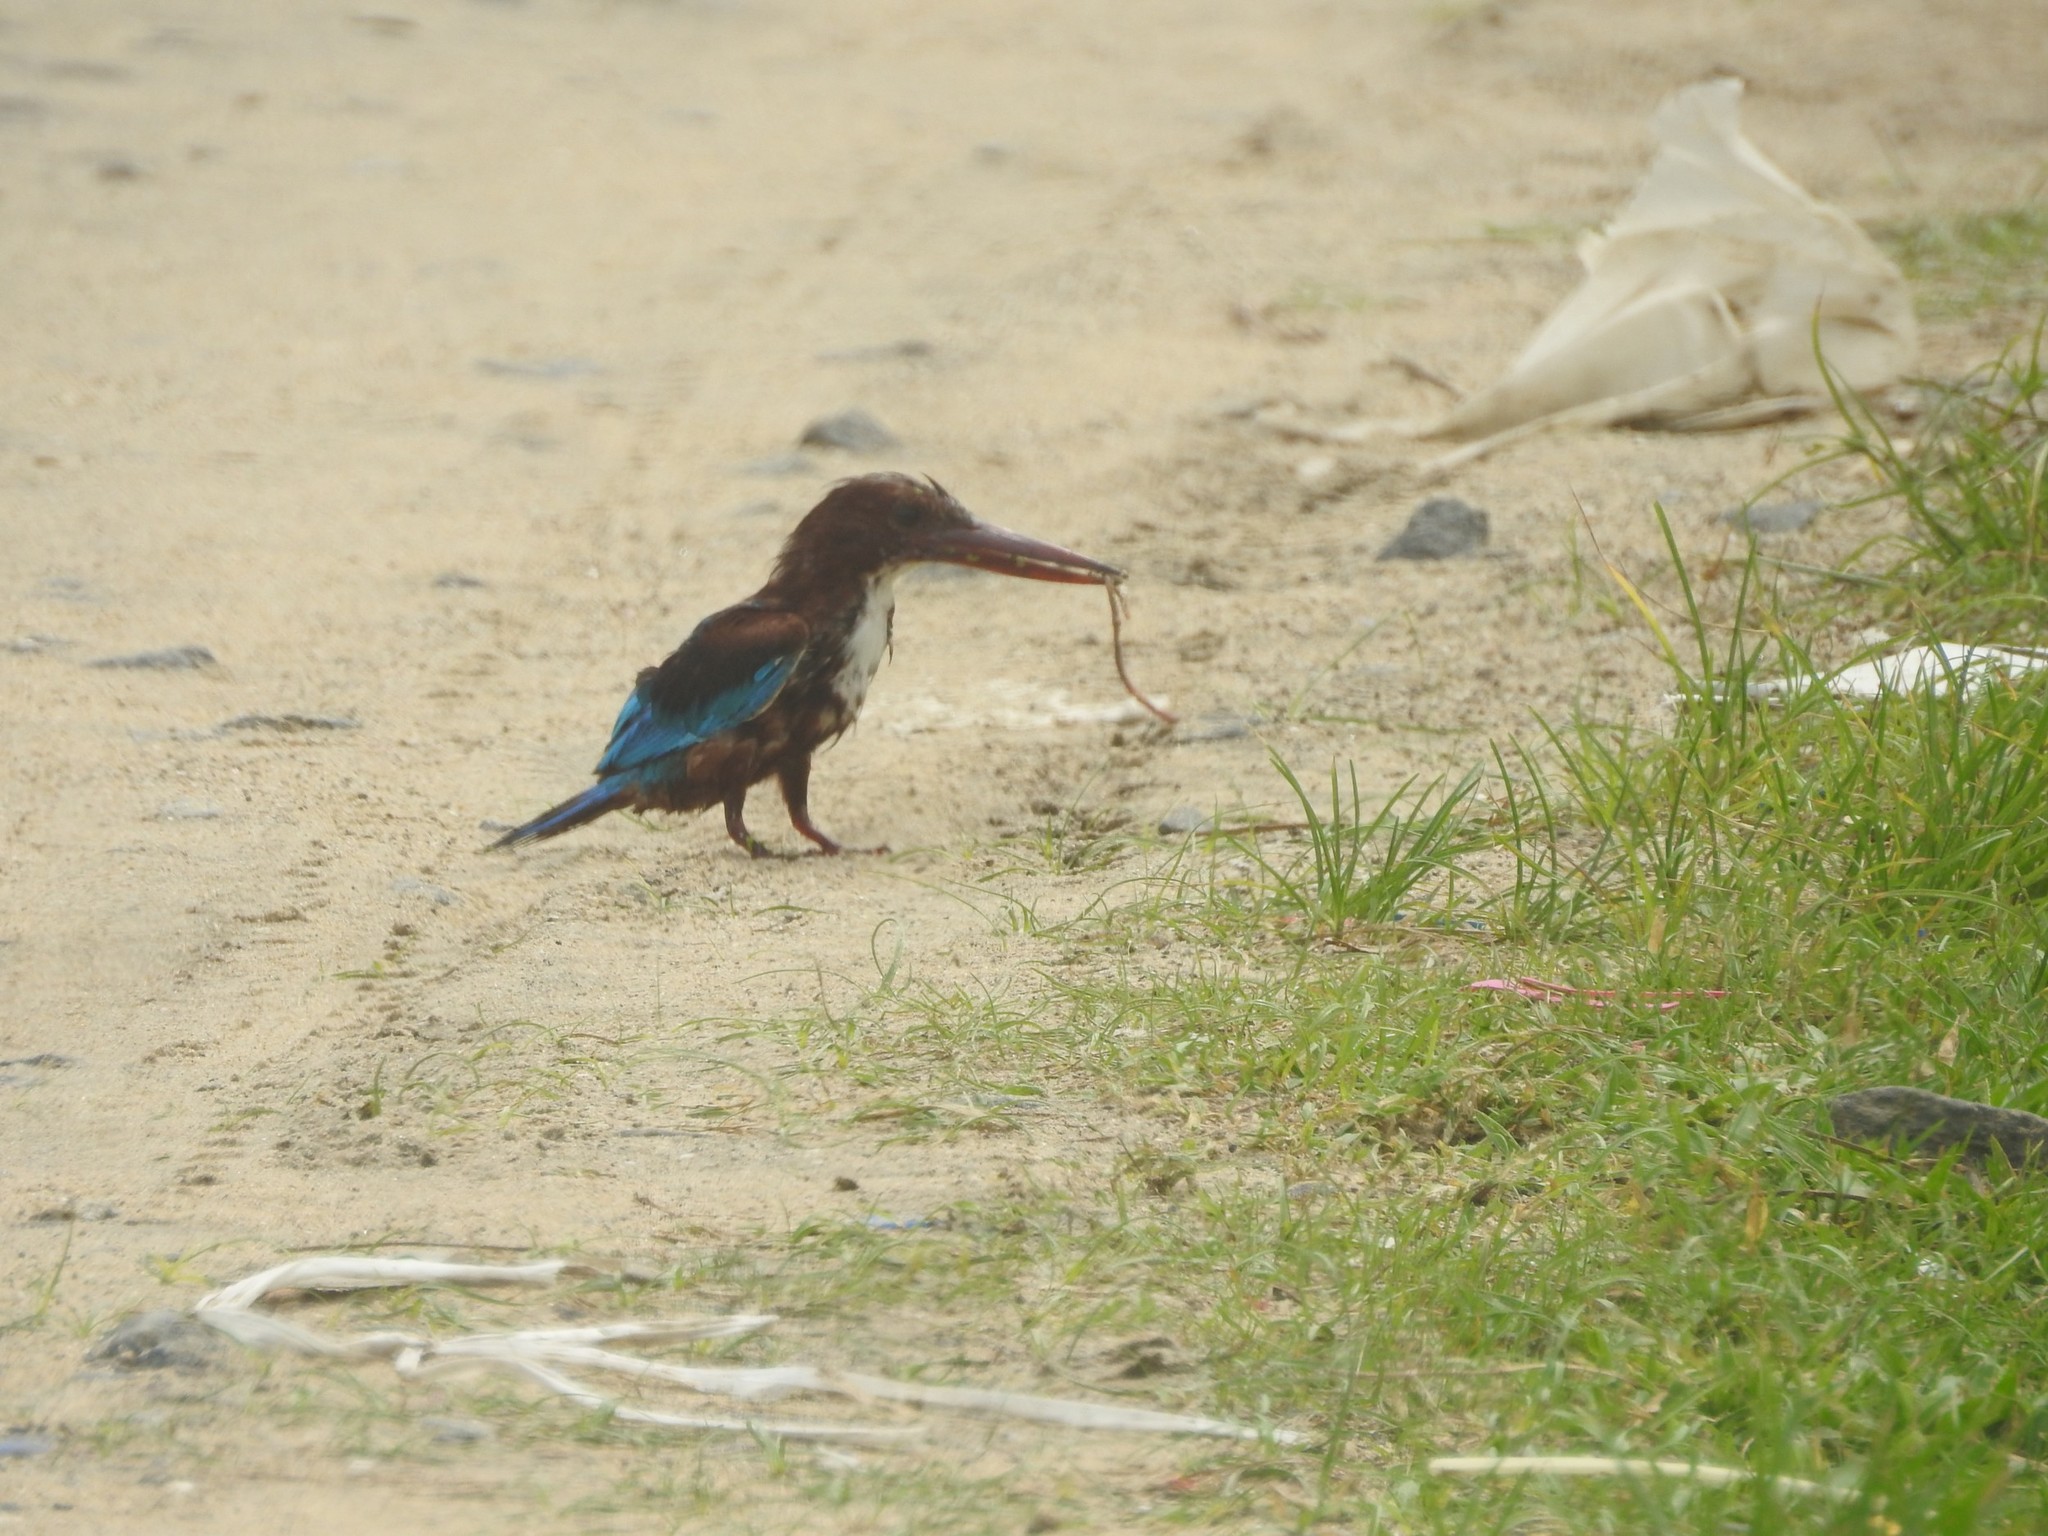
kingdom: Animalia
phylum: Chordata
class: Aves
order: Coraciiformes
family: Alcedinidae
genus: Halcyon
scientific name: Halcyon smyrnensis
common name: White-throated kingfisher
